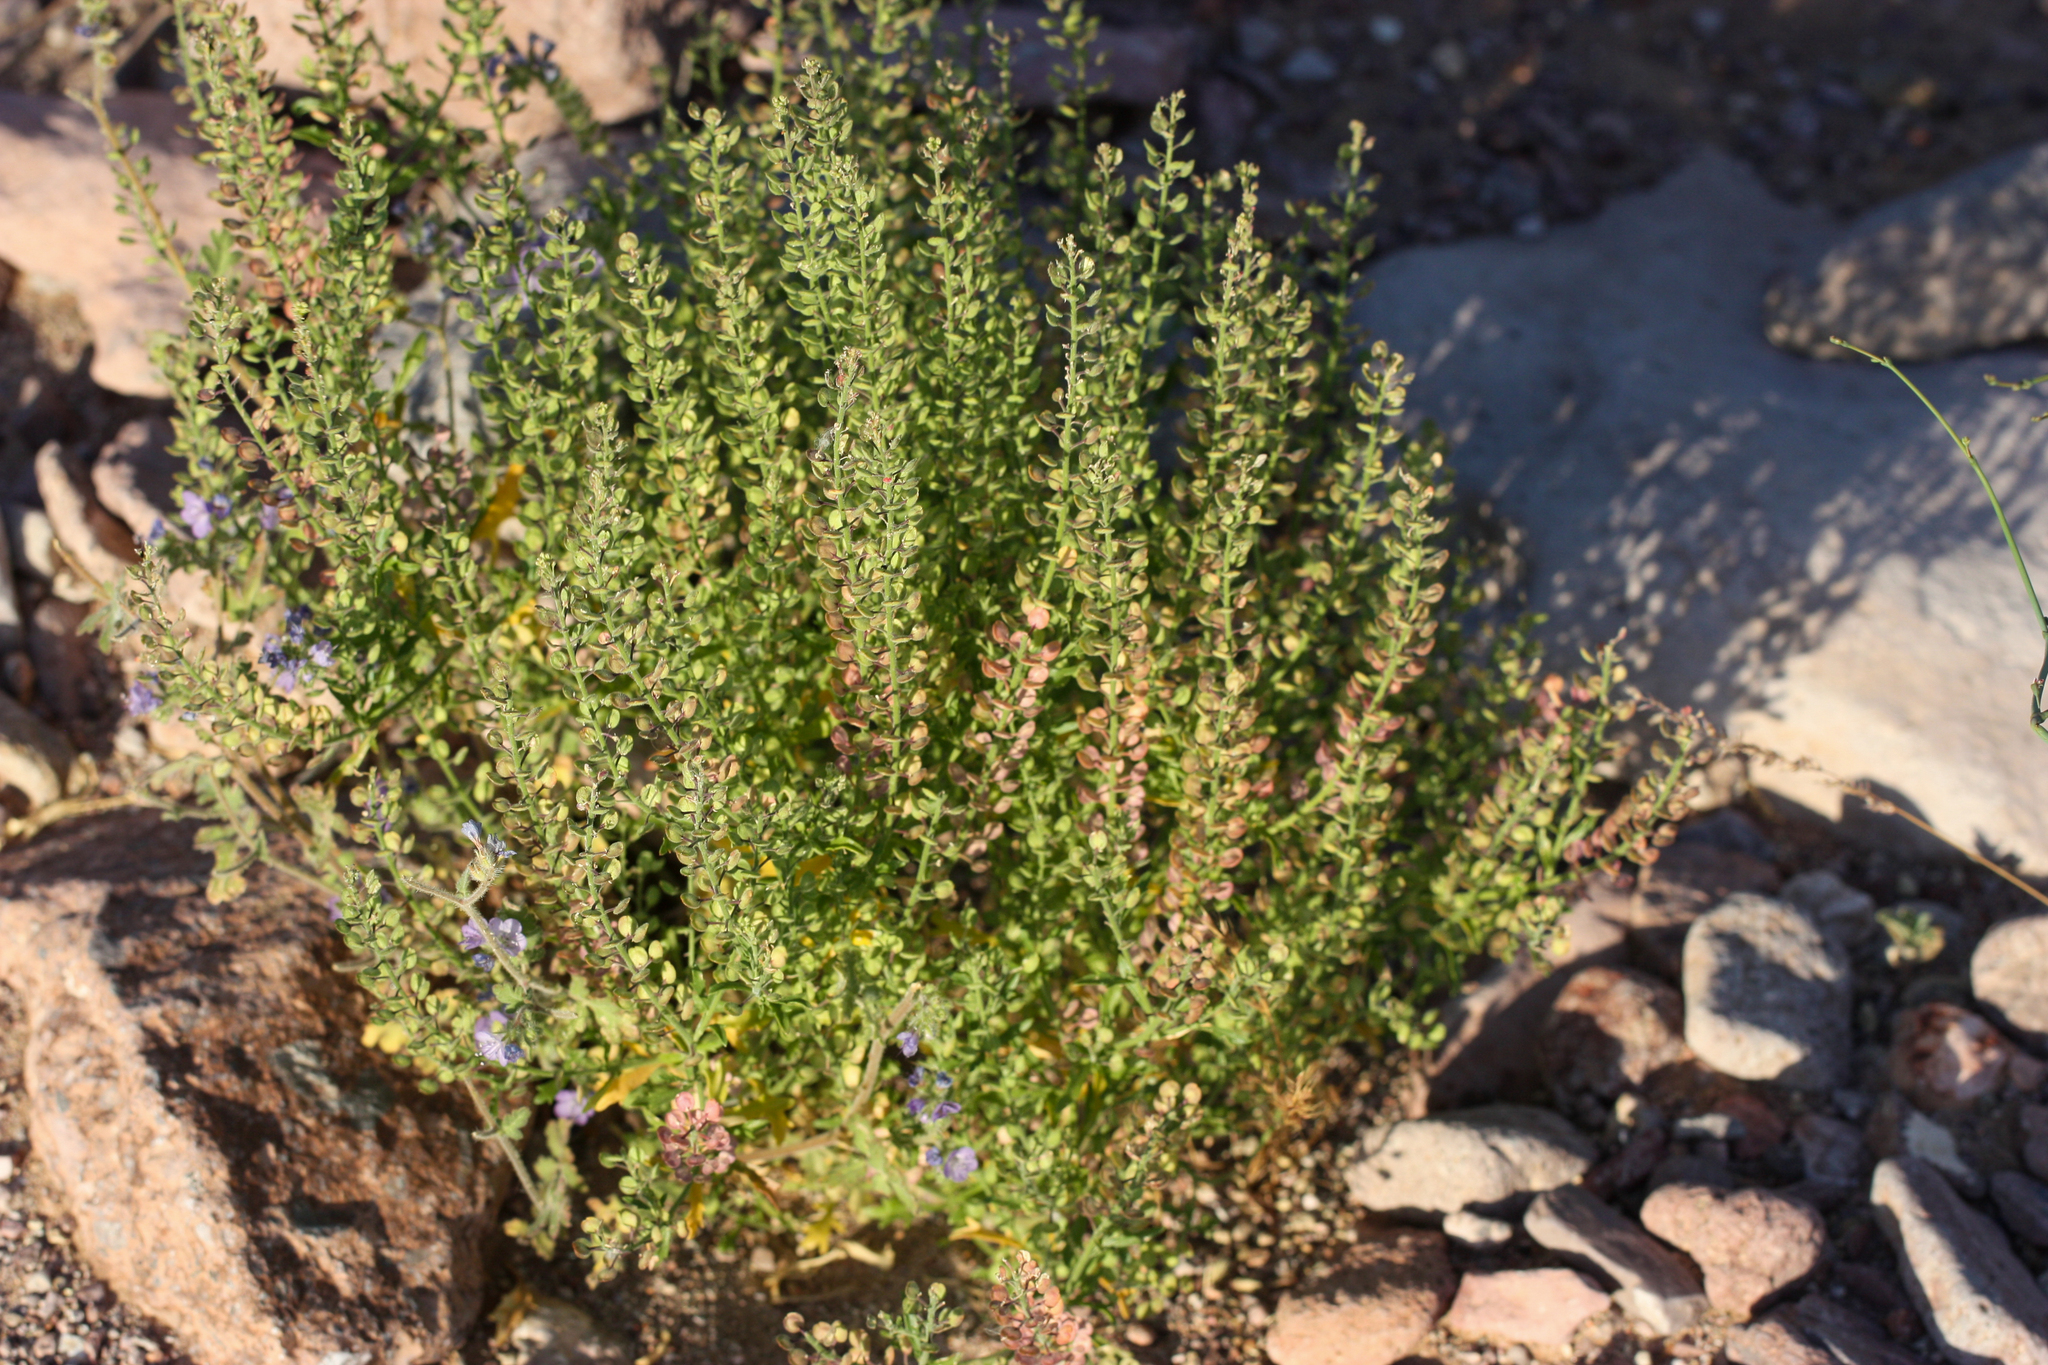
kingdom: Plantae
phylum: Tracheophyta
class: Magnoliopsida
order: Brassicales
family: Brassicaceae
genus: Lepidium
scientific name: Lepidium lasiocarpum
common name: Hairy-pod pepperwort
